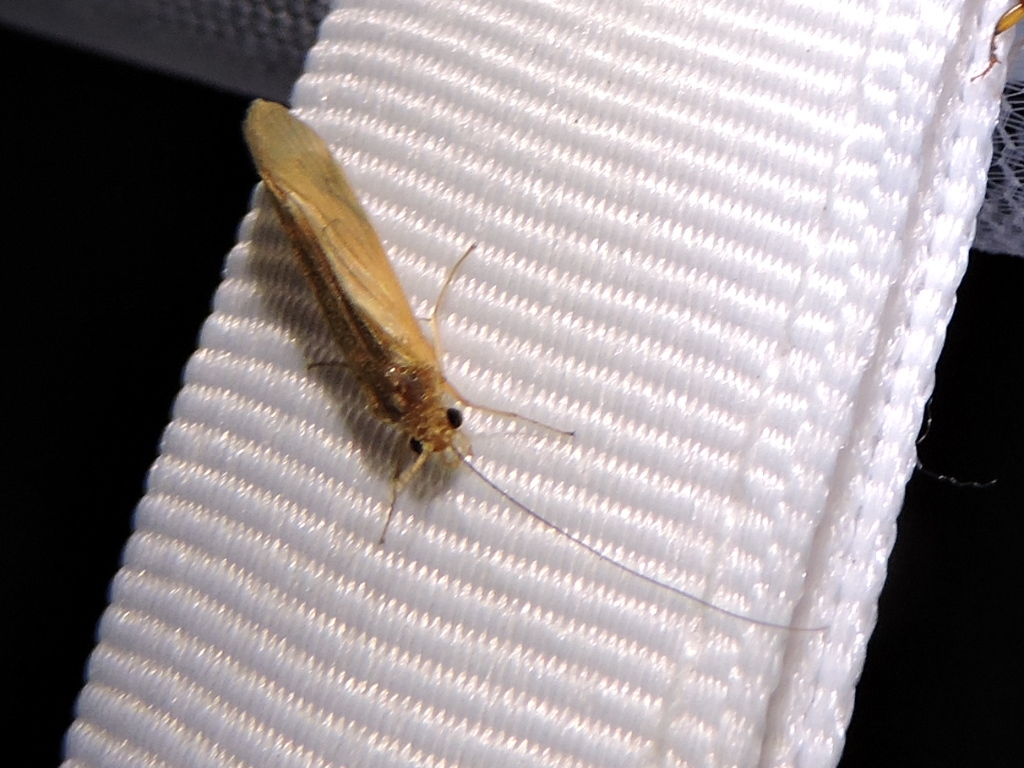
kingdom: Animalia
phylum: Arthropoda
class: Insecta
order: Trichoptera
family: Hydropsychidae
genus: Potamyia
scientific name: Potamyia flava
